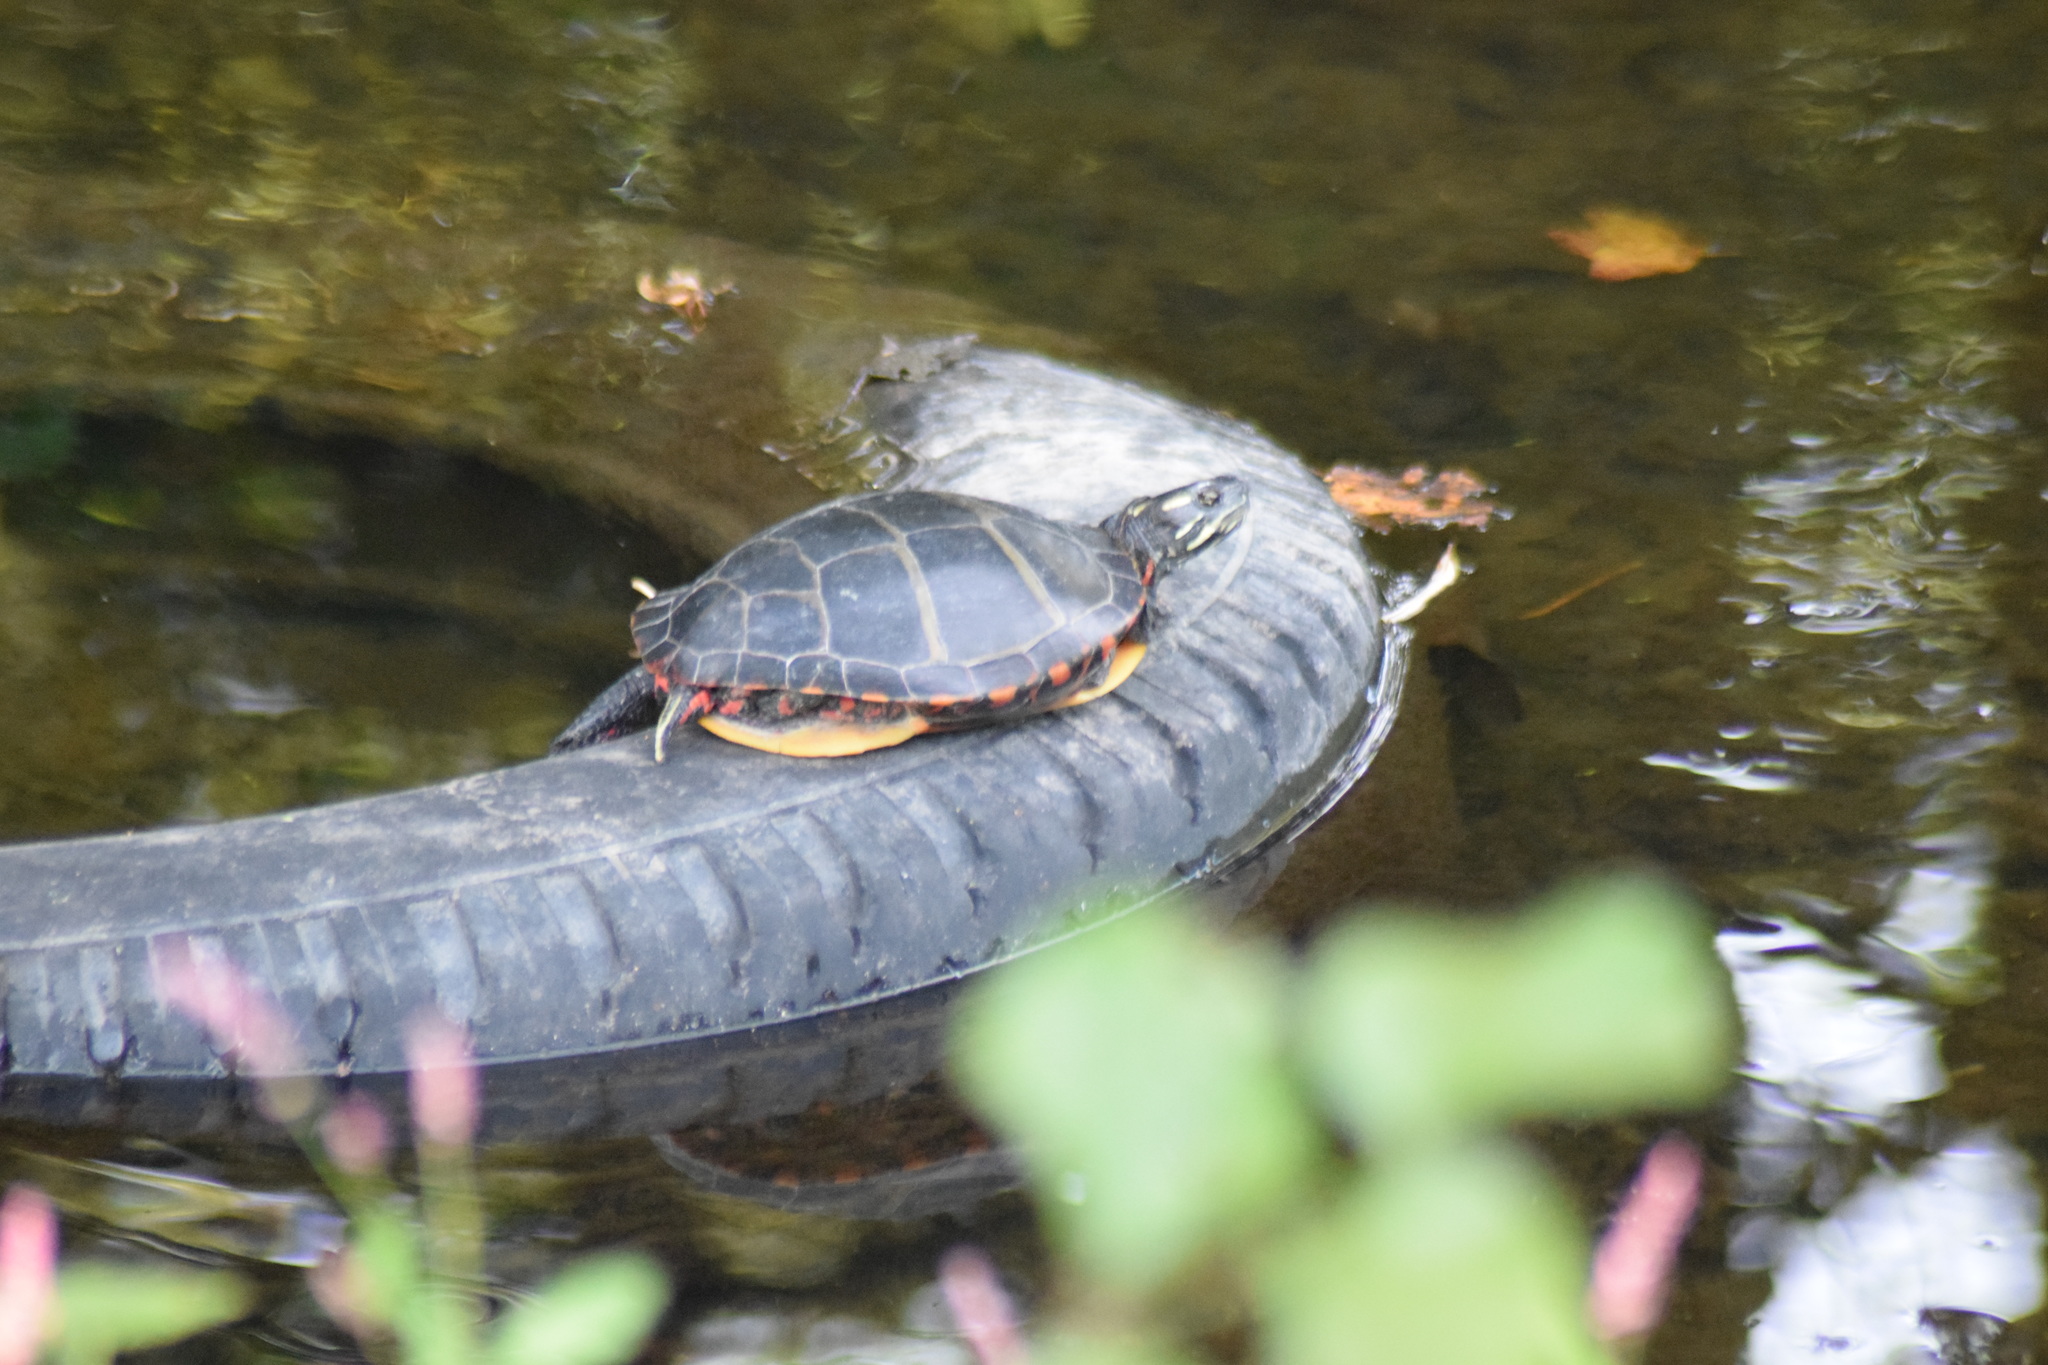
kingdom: Animalia
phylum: Chordata
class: Testudines
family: Emydidae
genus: Chrysemys
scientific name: Chrysemys picta
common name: Painted turtle
